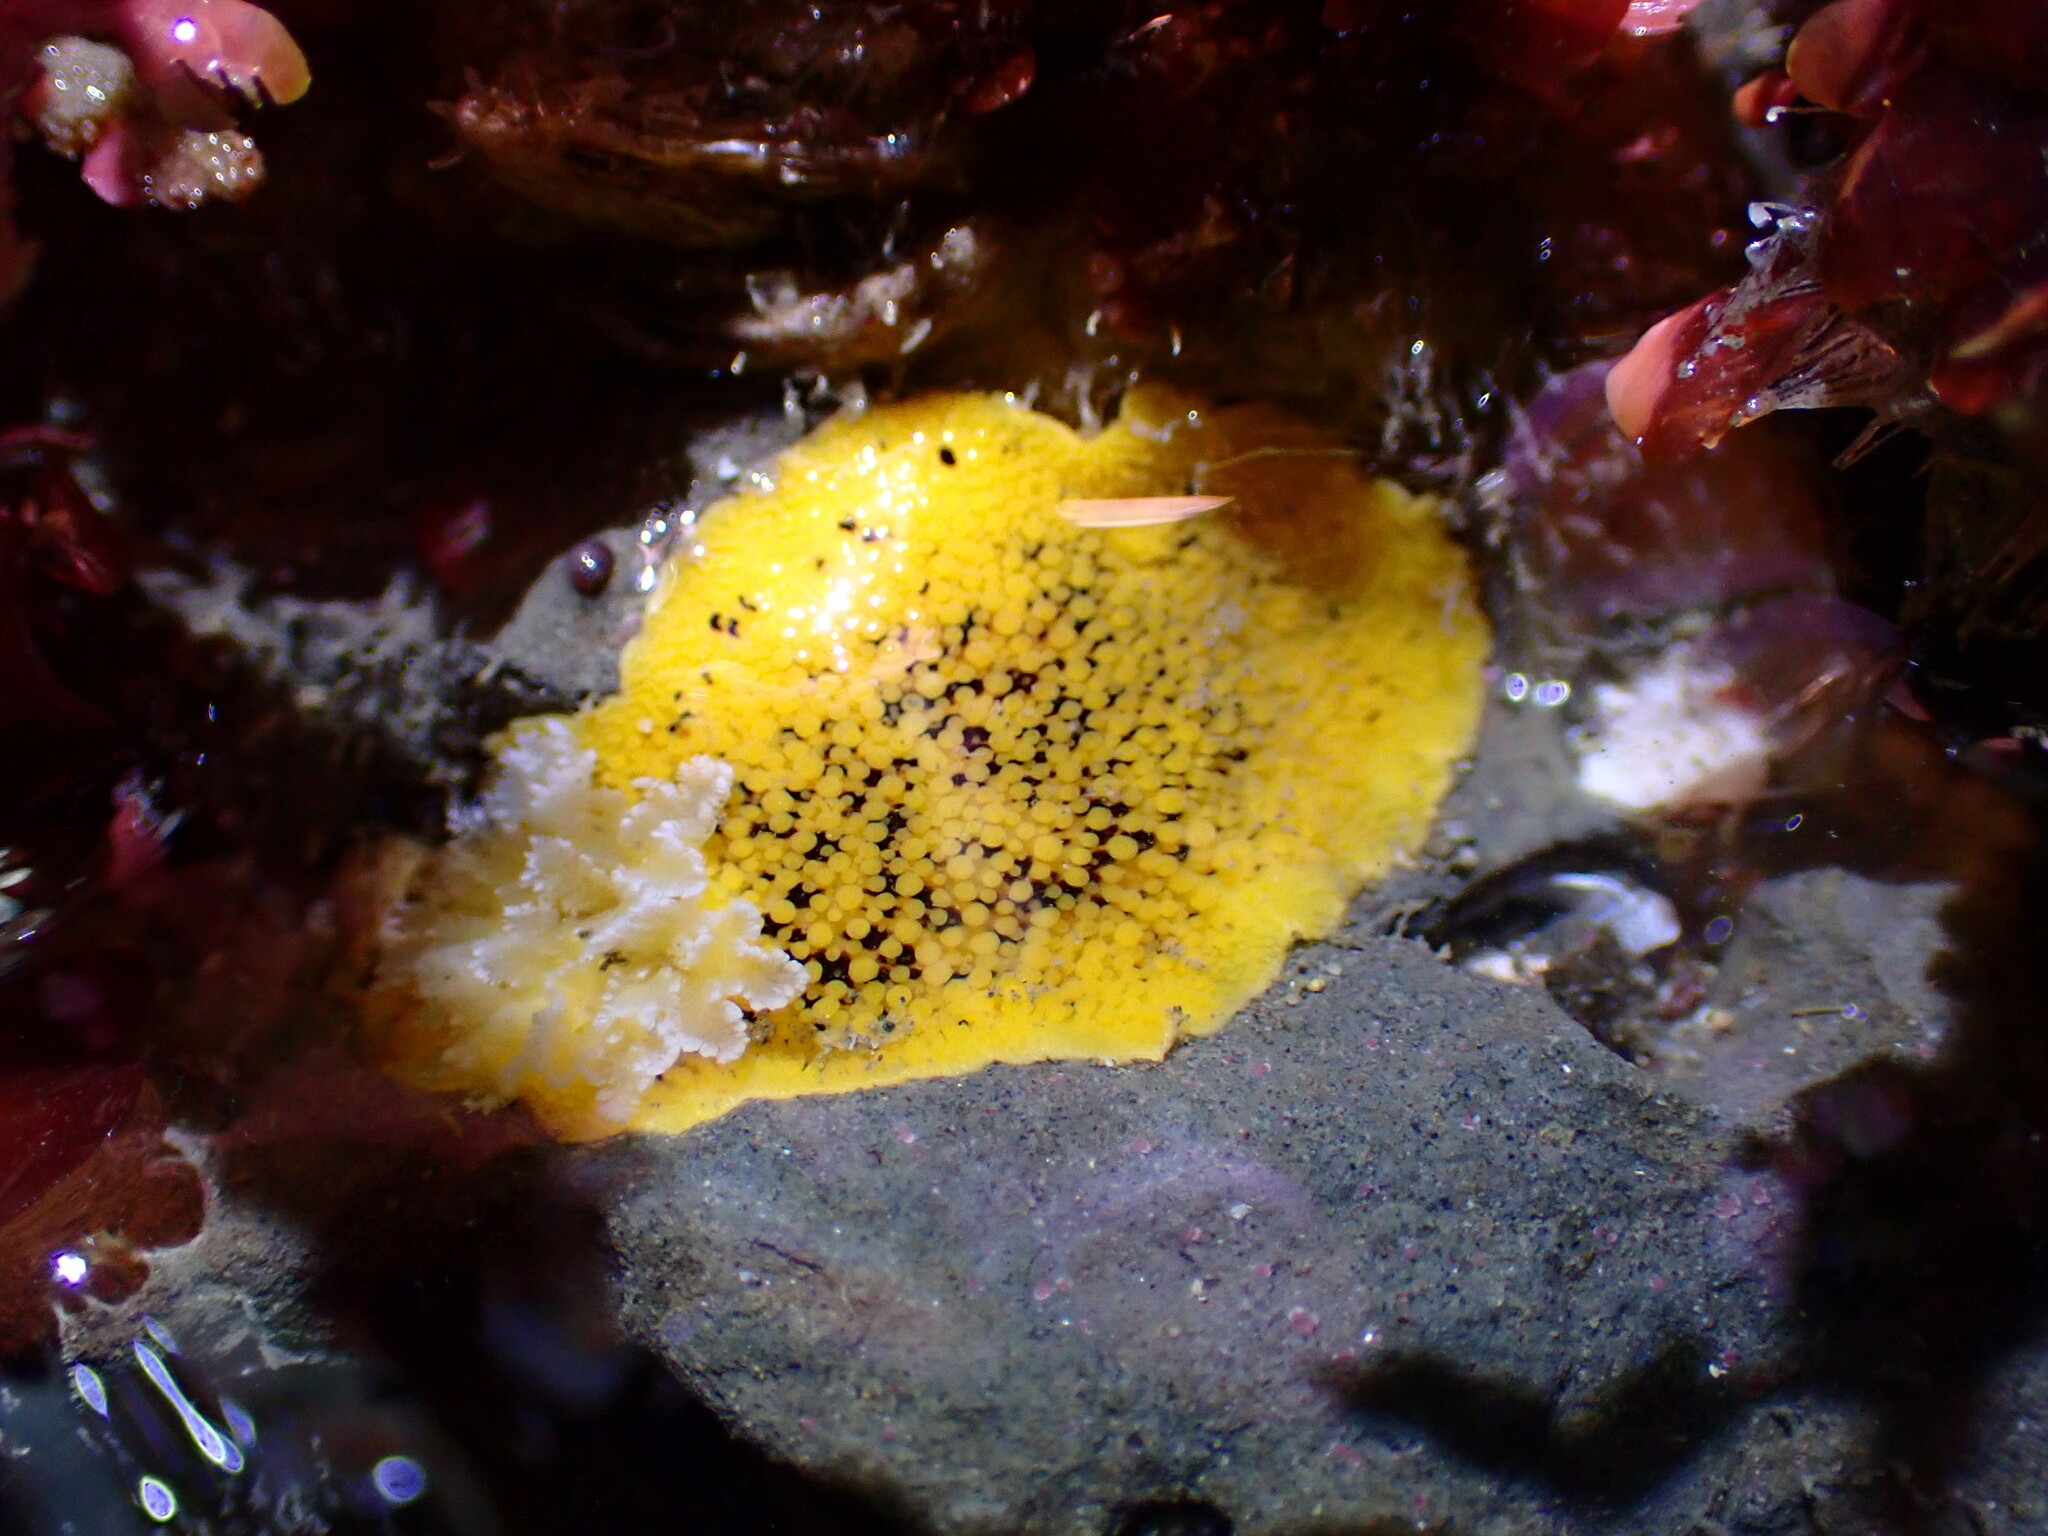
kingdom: Animalia
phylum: Mollusca
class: Gastropoda
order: Nudibranchia
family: Discodorididae
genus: Peltodoris
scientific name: Peltodoris nobilis
